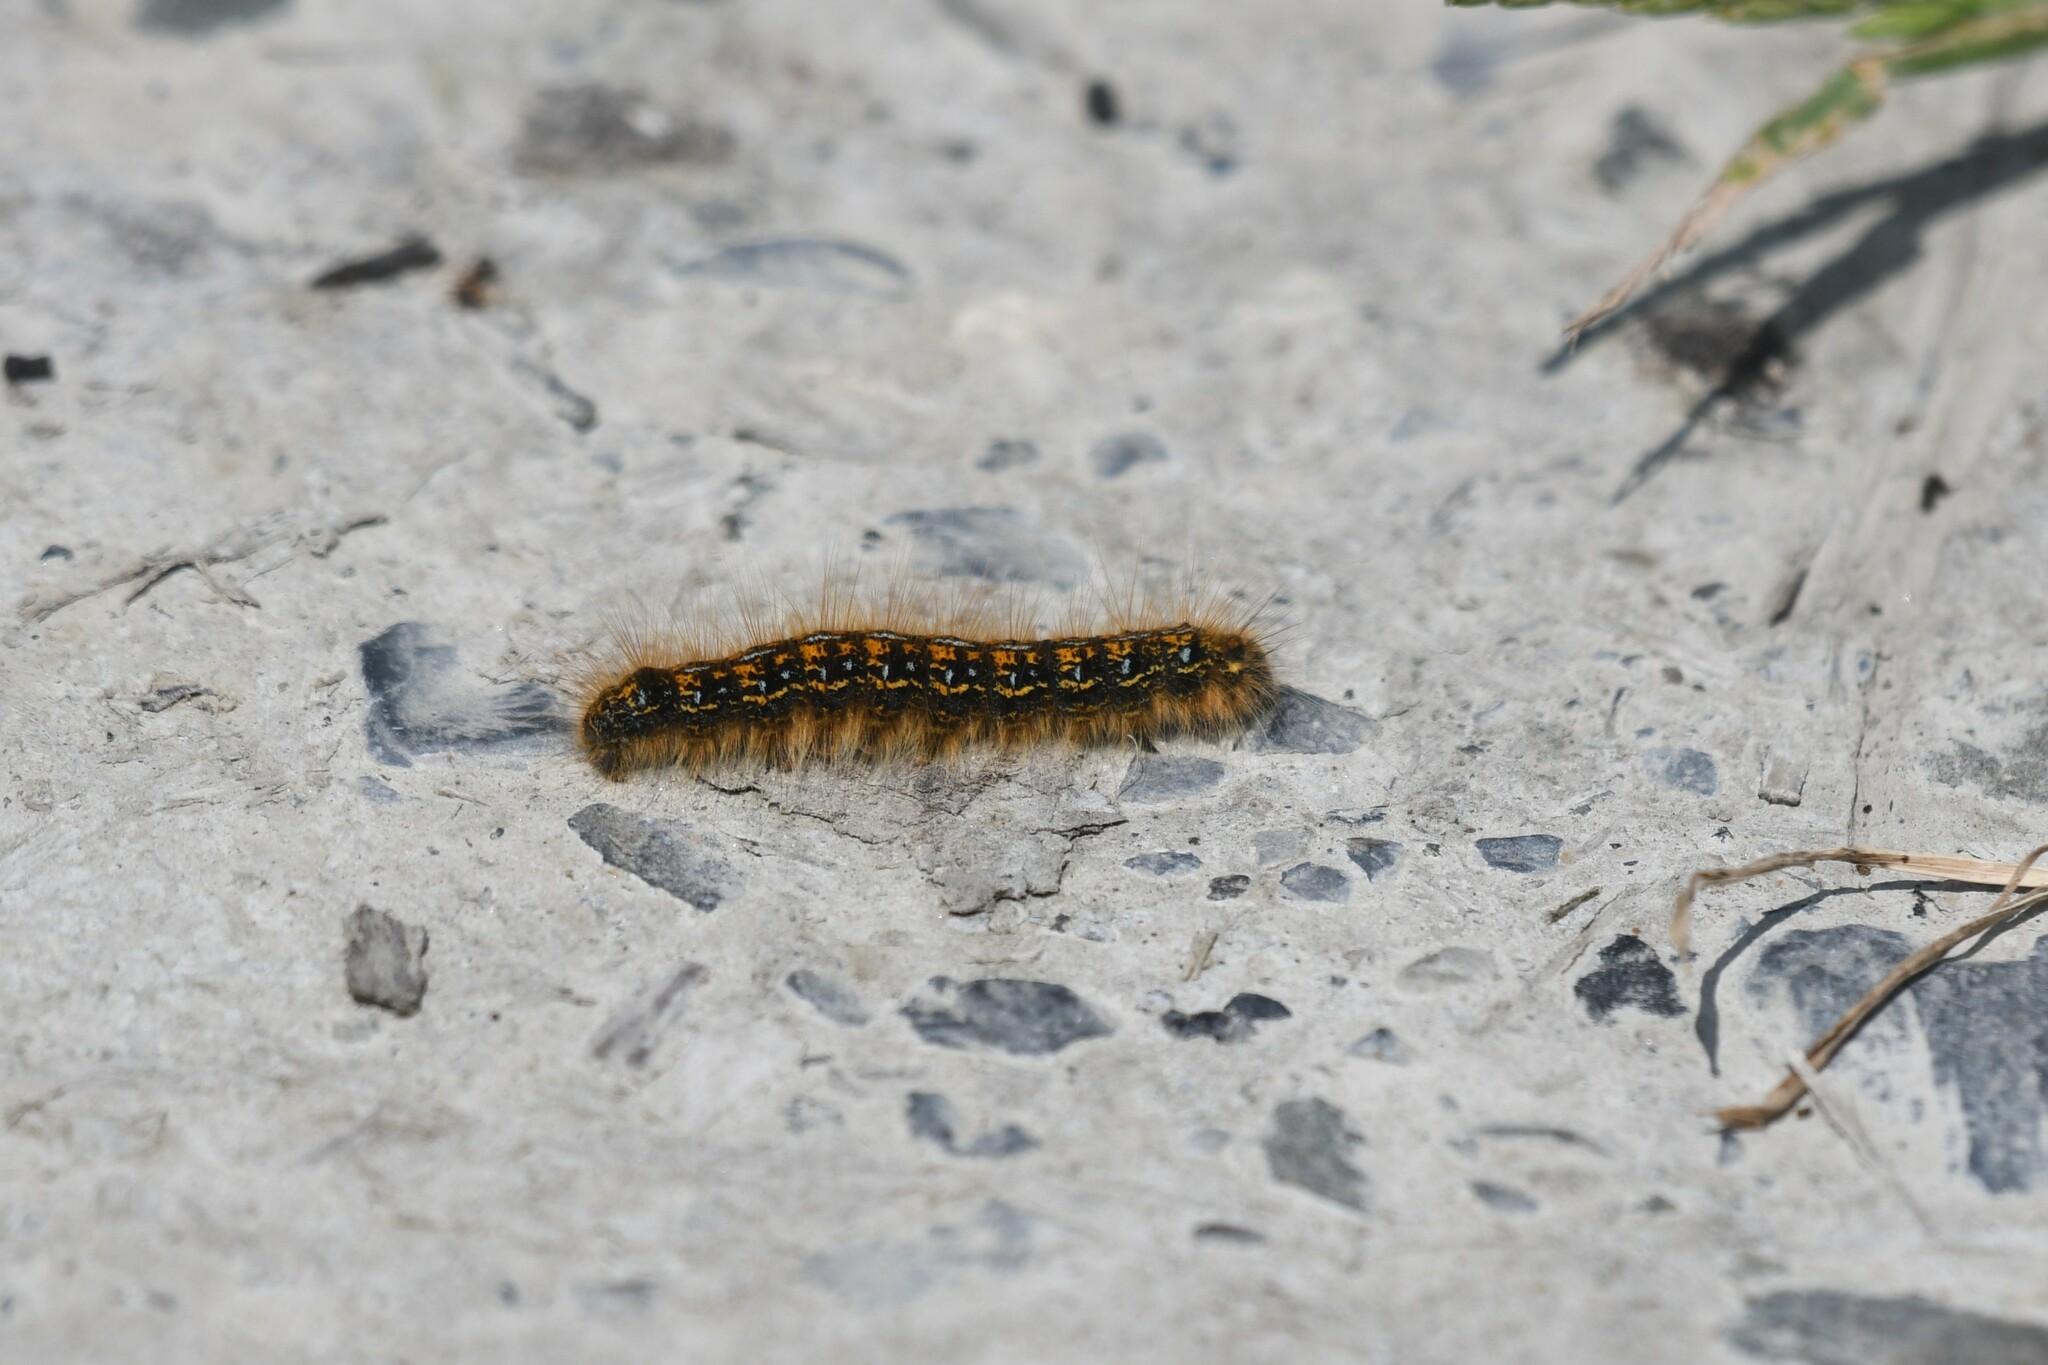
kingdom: Animalia
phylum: Arthropoda
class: Insecta
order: Lepidoptera
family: Lasiocampidae
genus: Malacosoma
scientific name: Malacosoma californica
